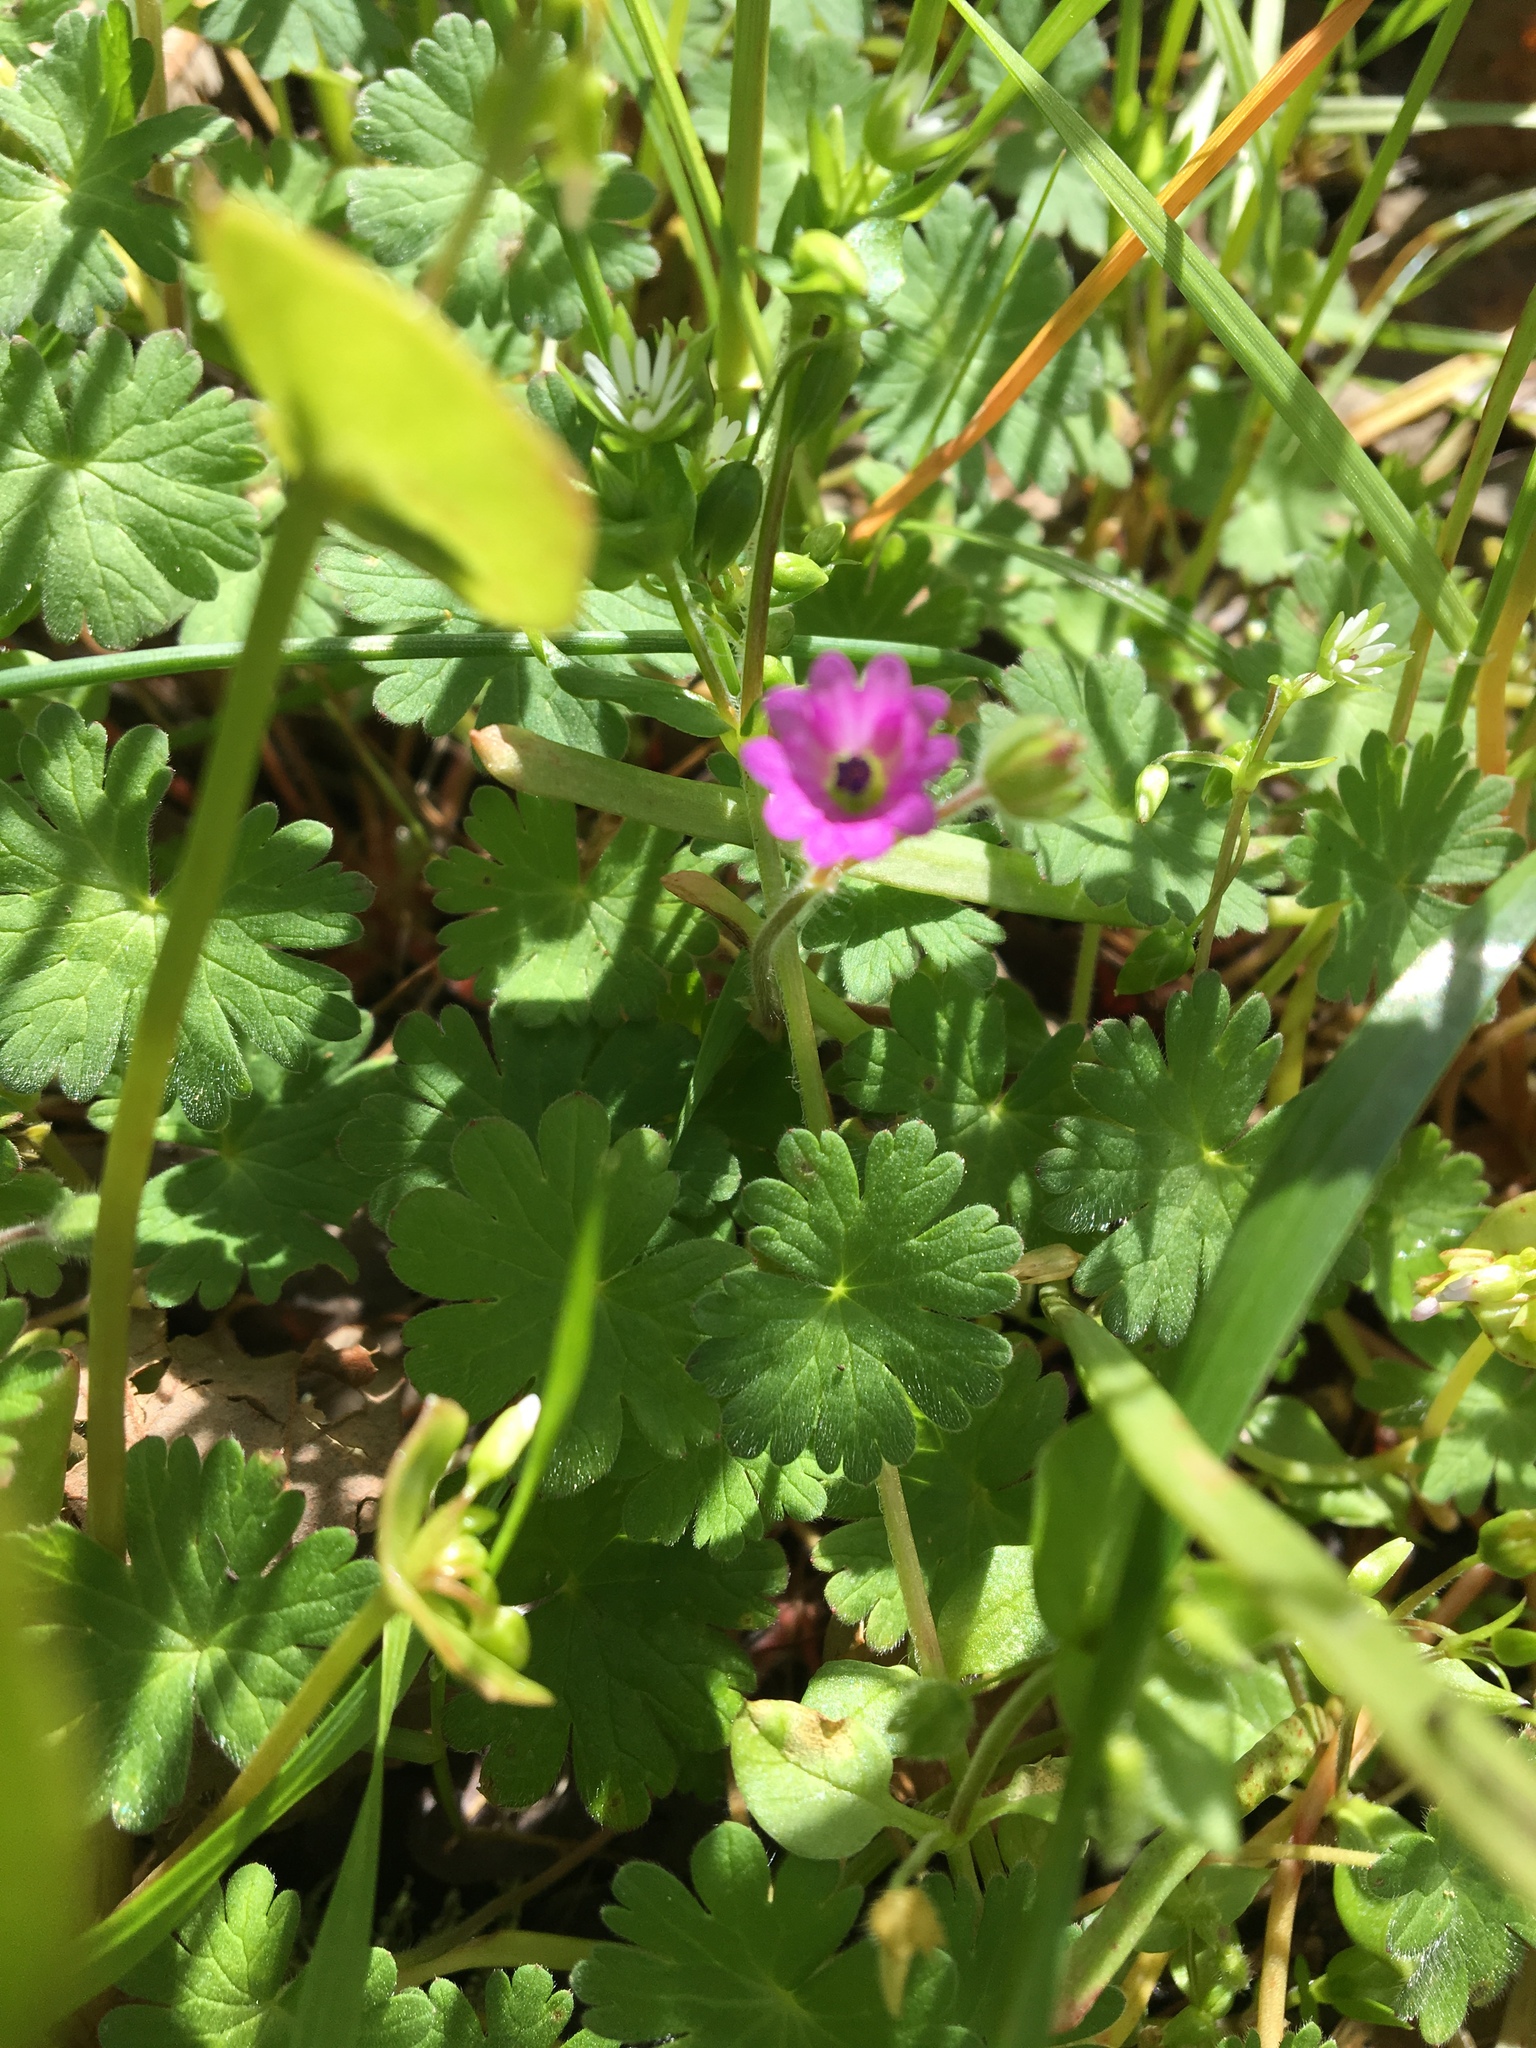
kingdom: Plantae
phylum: Tracheophyta
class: Magnoliopsida
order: Geraniales
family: Geraniaceae
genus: Geranium
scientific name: Geranium molle
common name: Dove's-foot crane's-bill
